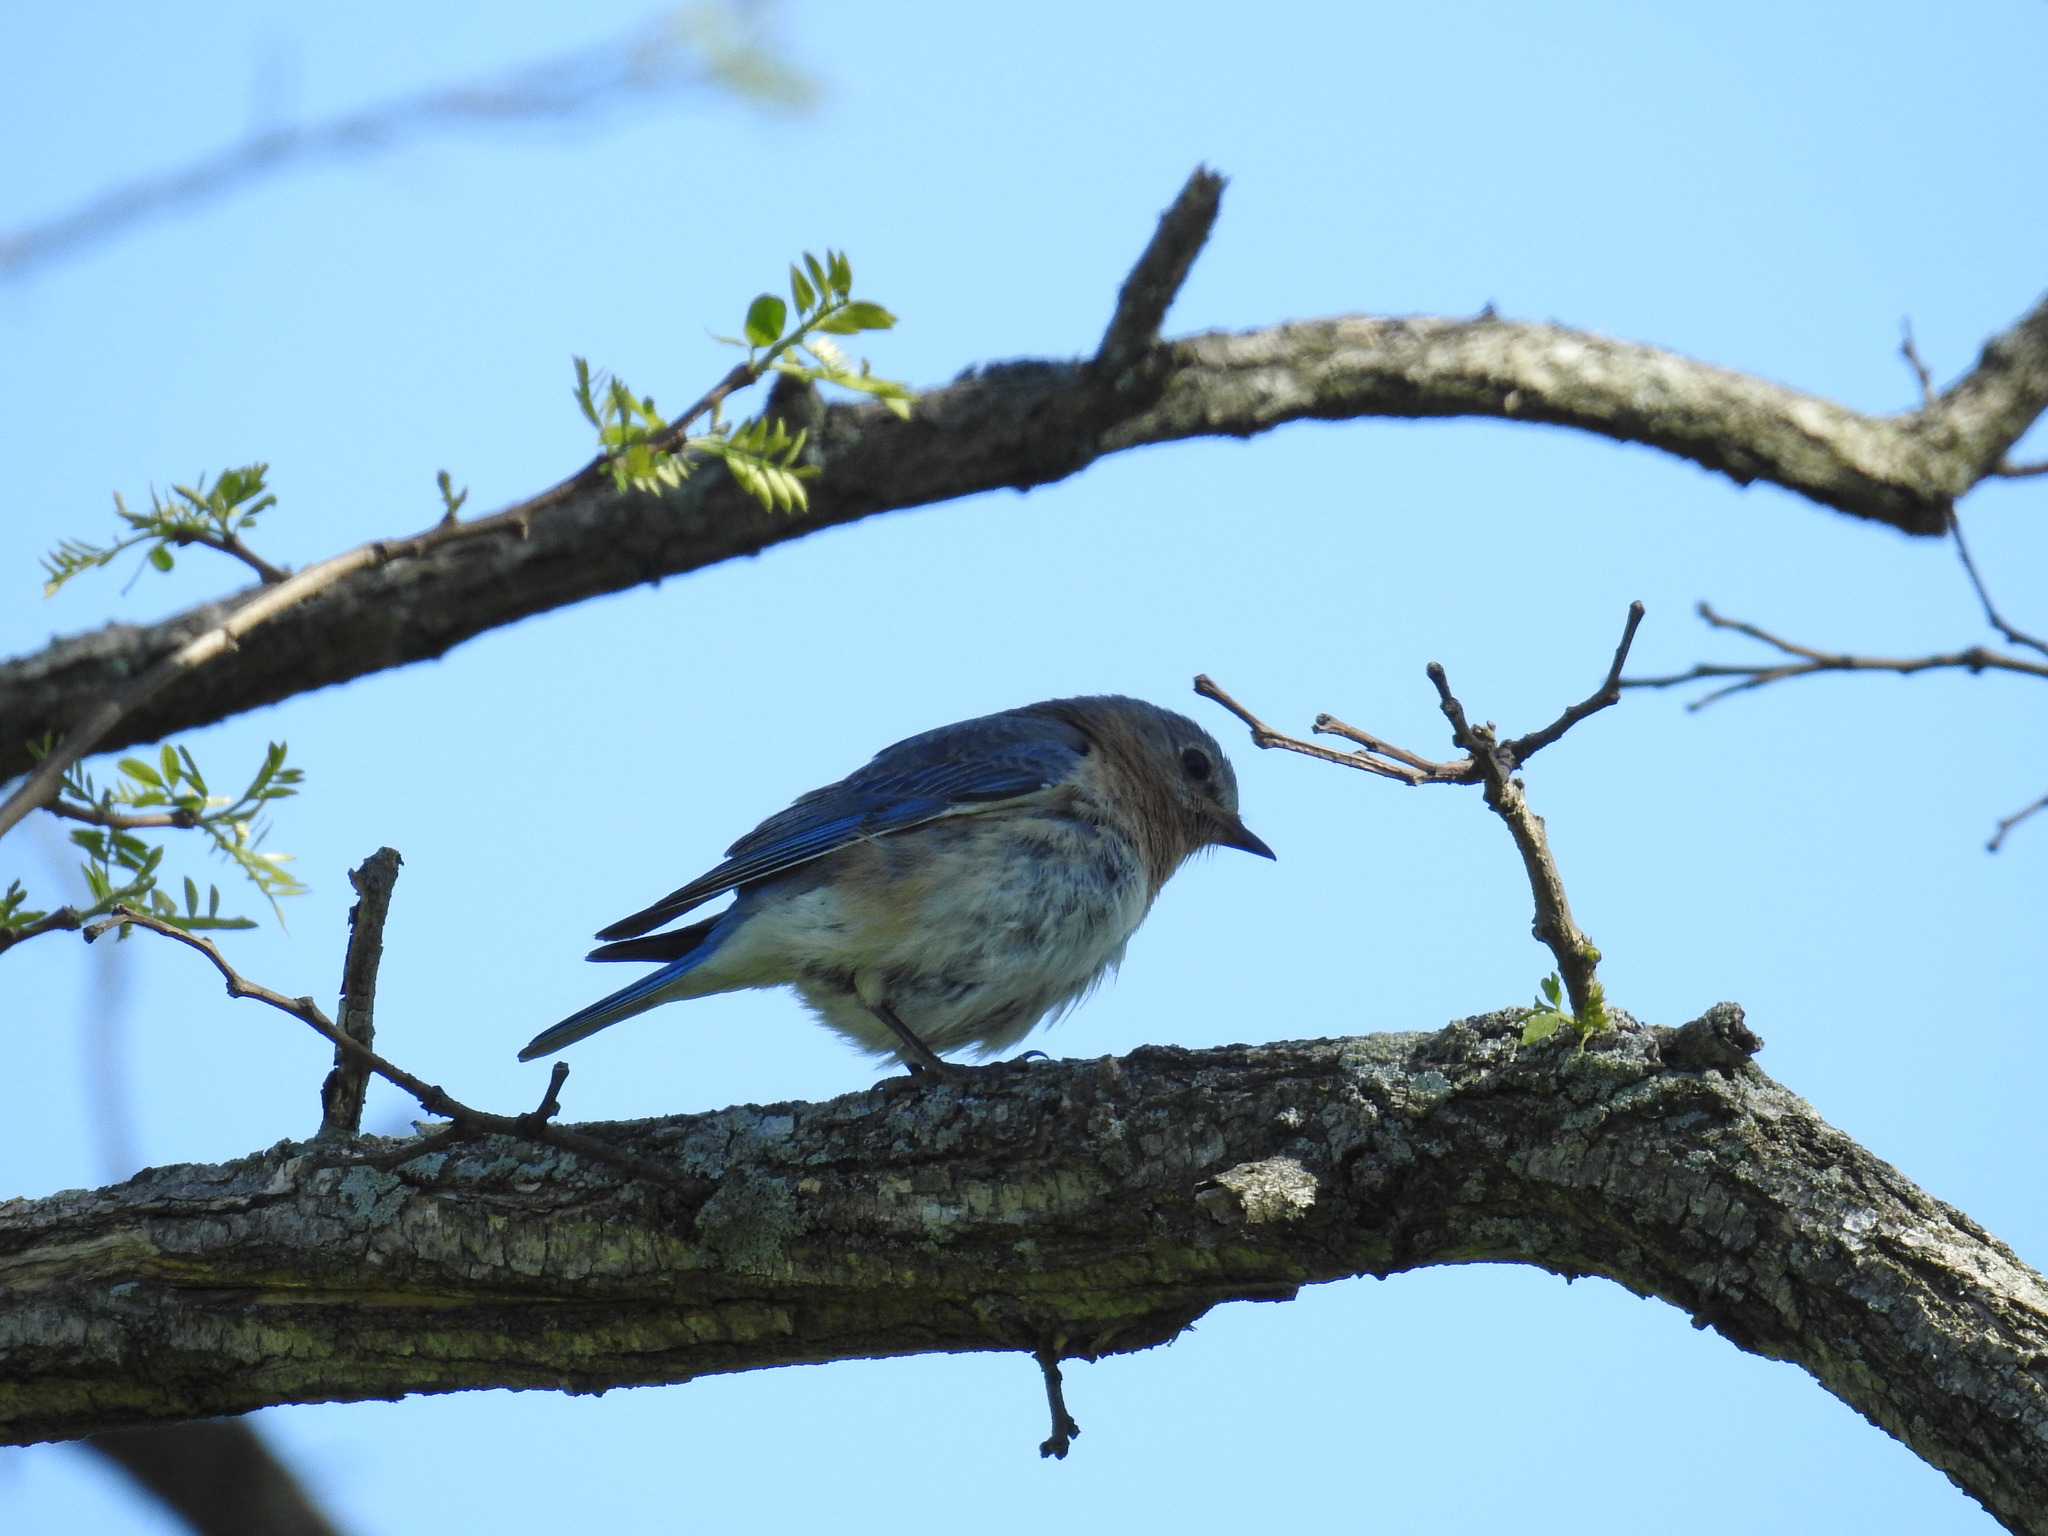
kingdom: Animalia
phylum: Chordata
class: Aves
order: Passeriformes
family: Turdidae
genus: Sialia
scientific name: Sialia sialis
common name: Eastern bluebird
